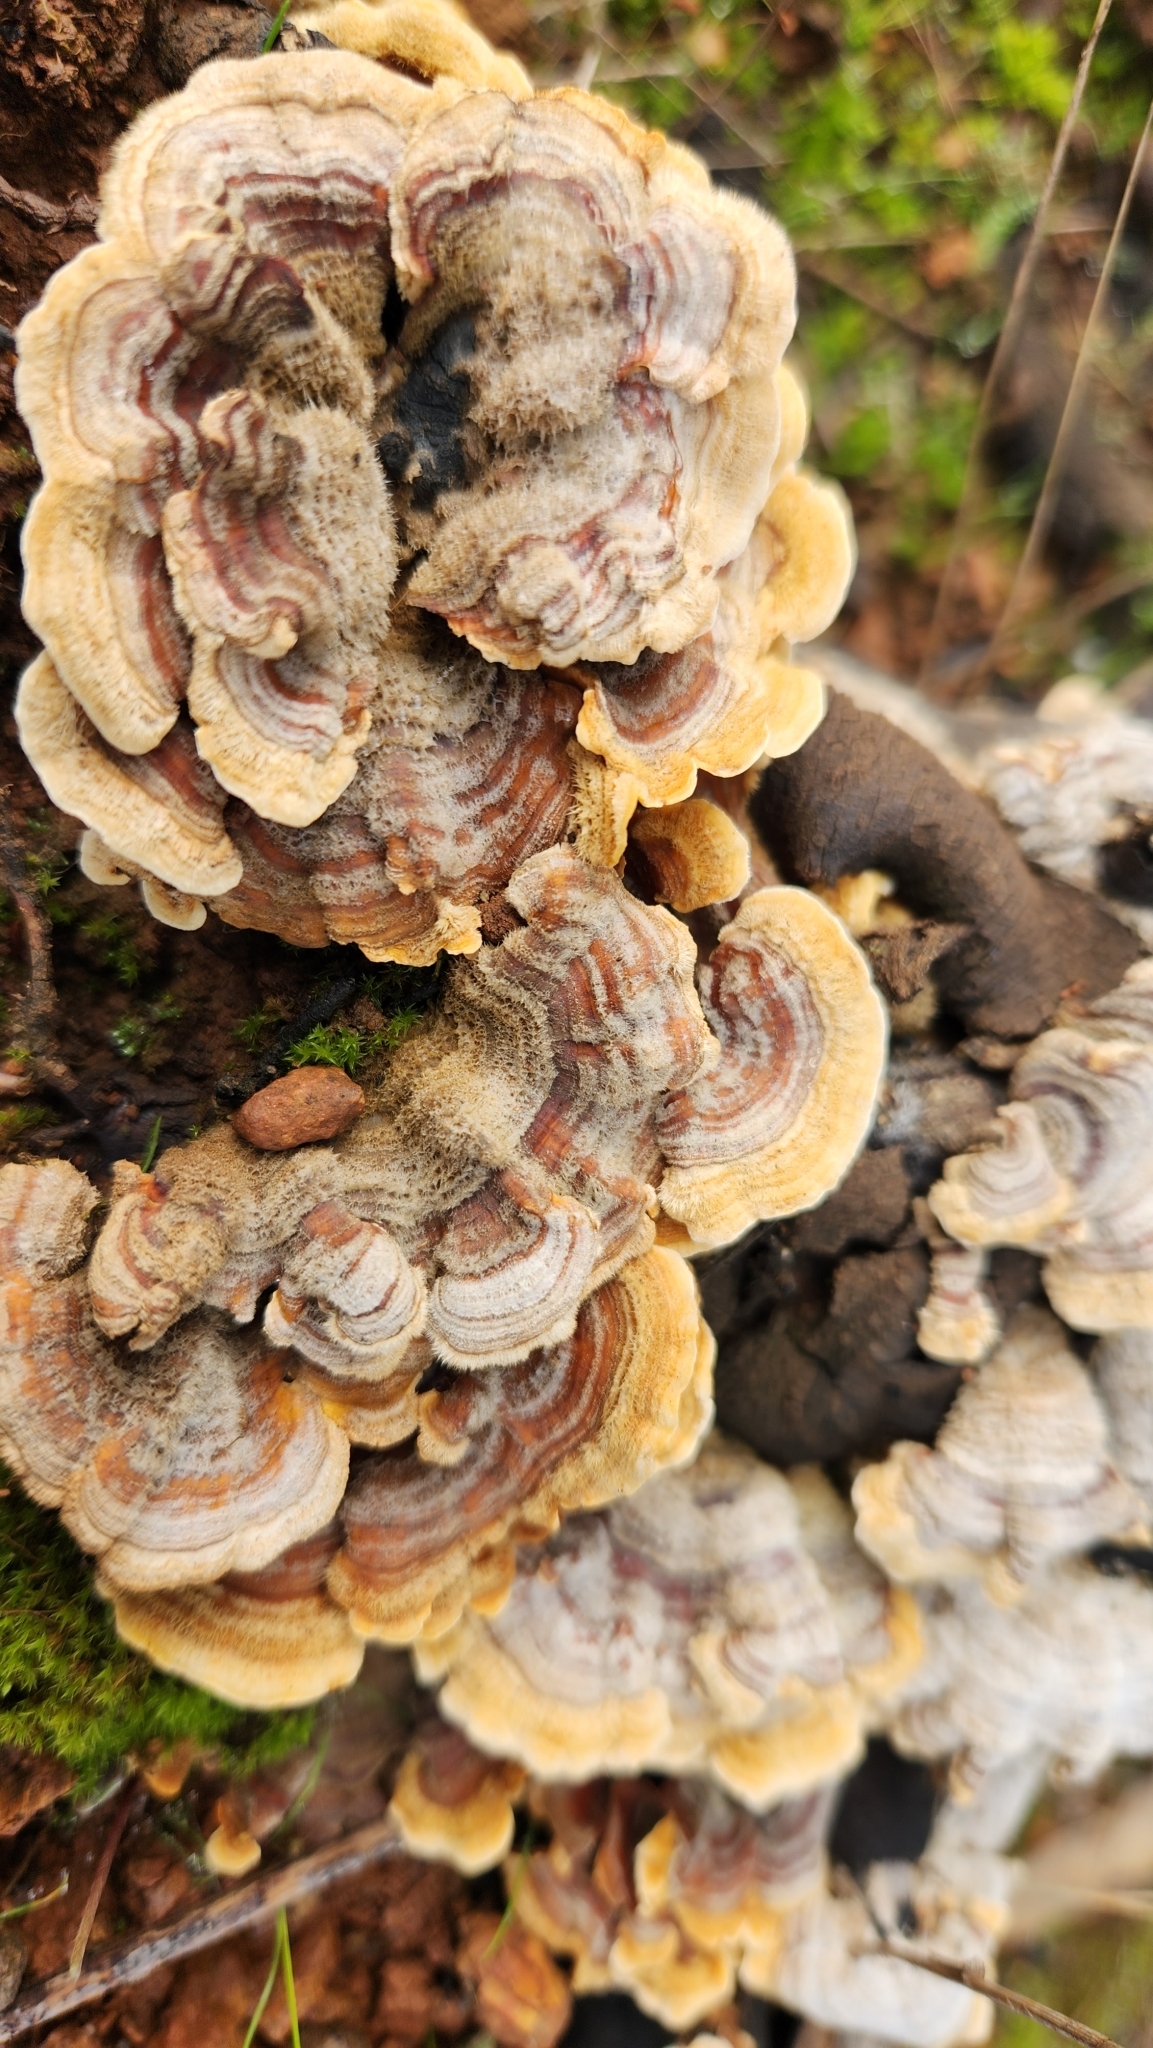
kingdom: Fungi
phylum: Basidiomycota
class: Agaricomycetes
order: Polyporales
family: Polyporaceae
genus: Trametes
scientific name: Trametes versicolor
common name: Turkeytail
